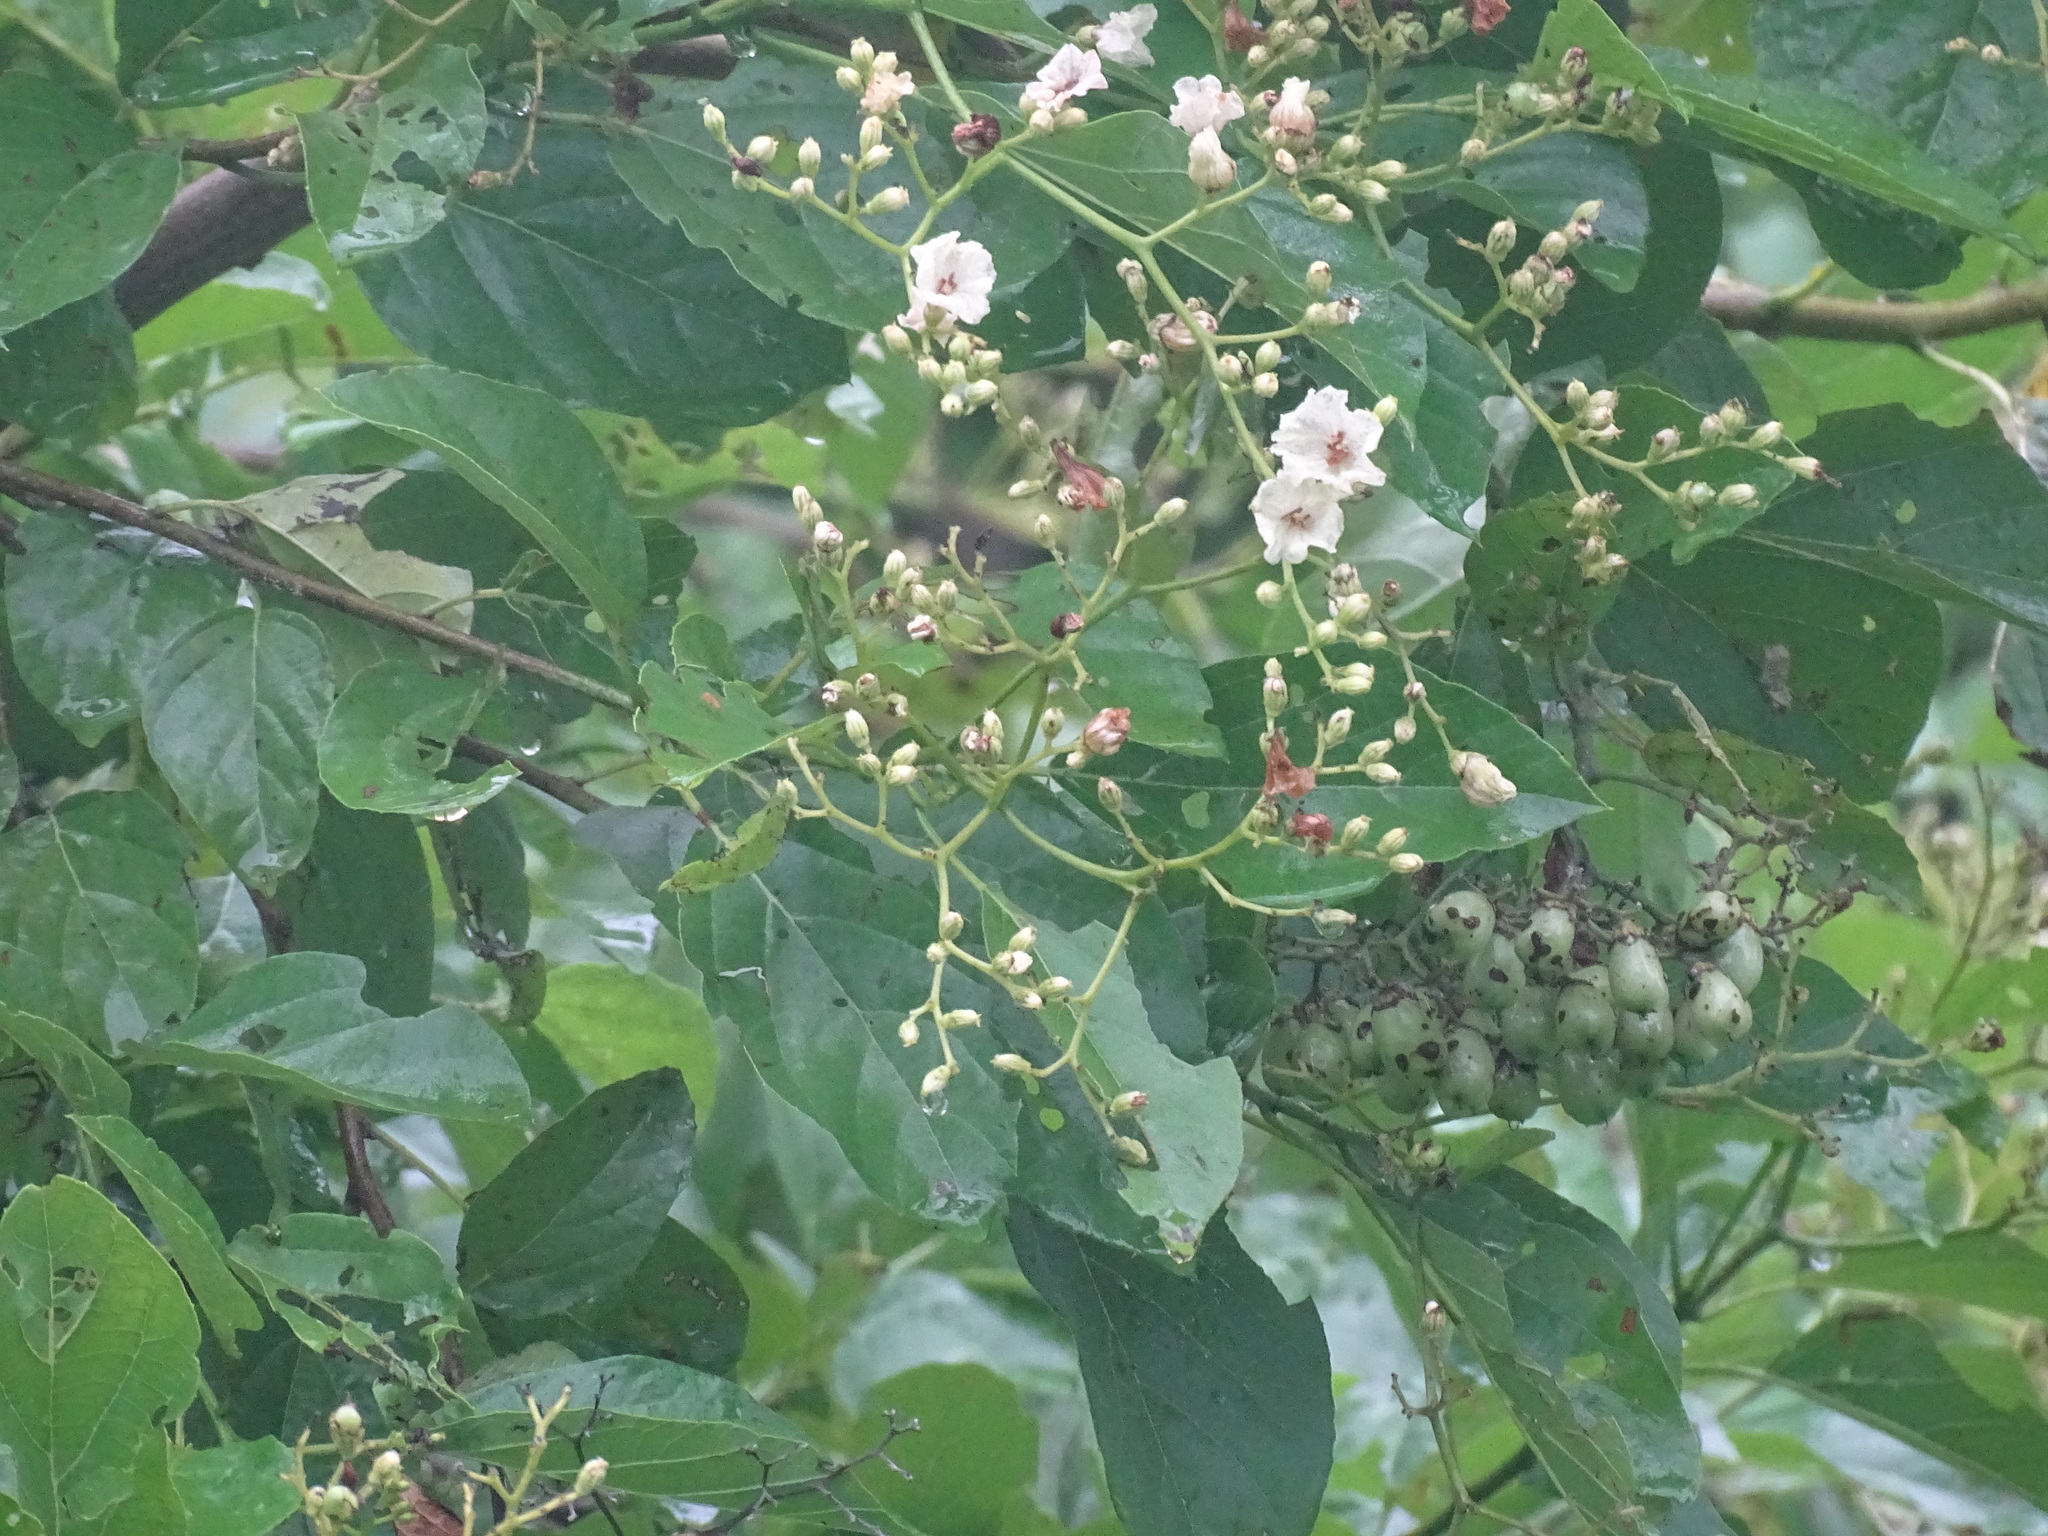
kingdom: Plantae
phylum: Tracheophyta
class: Magnoliopsida
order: Boraginales
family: Cordiaceae
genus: Cordia
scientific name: Cordia dentata
